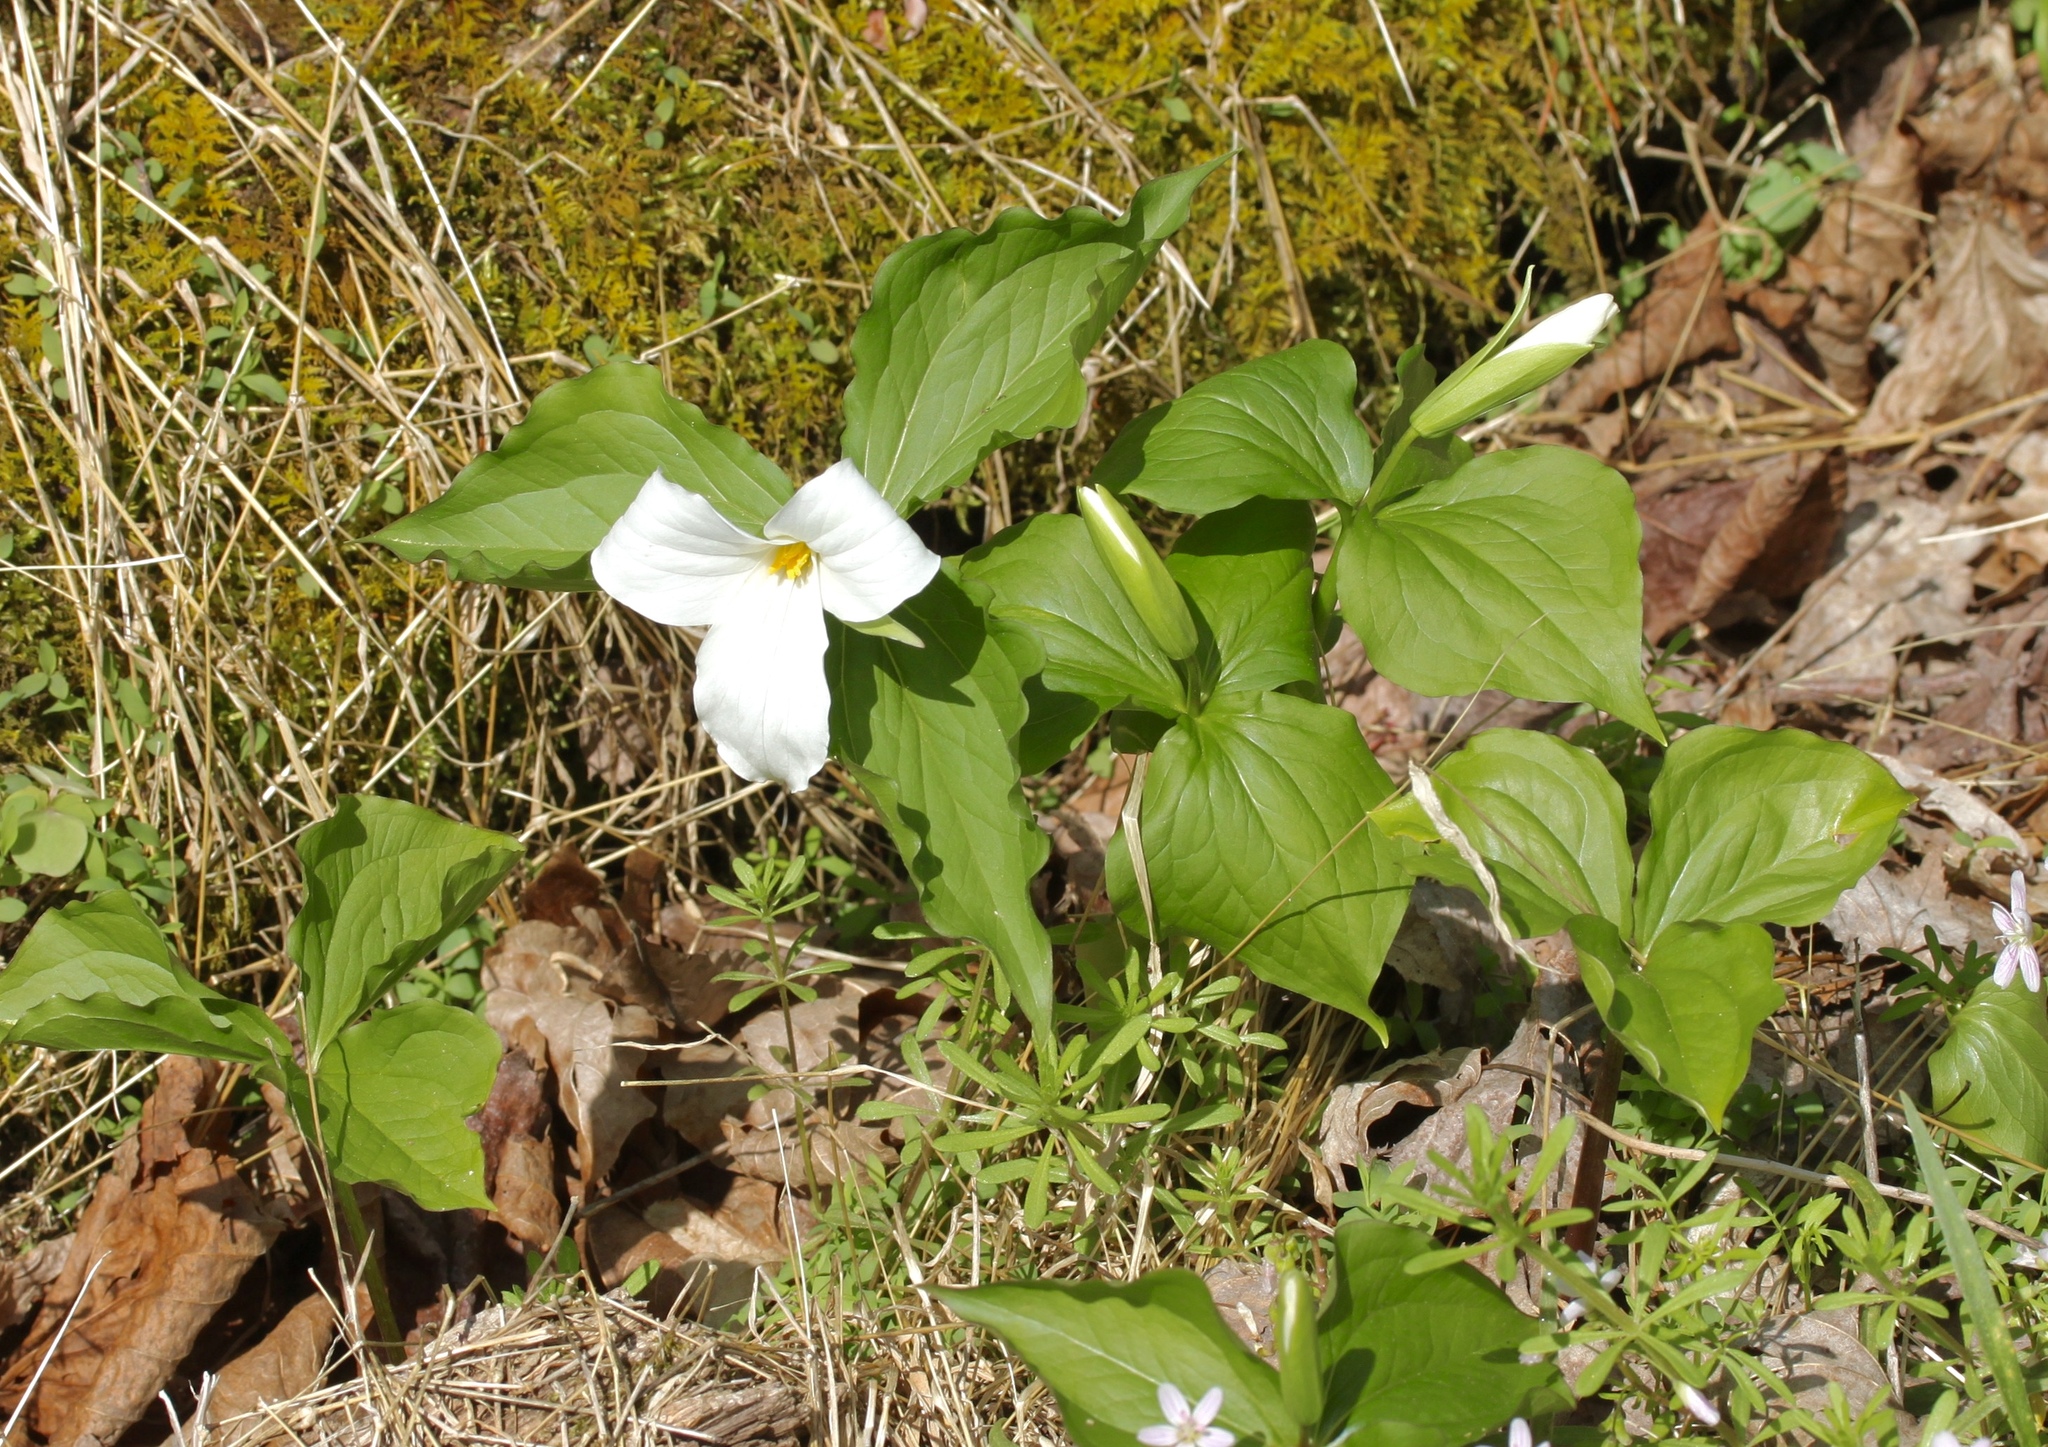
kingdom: Plantae
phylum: Tracheophyta
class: Liliopsida
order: Liliales
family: Melanthiaceae
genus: Trillium
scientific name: Trillium grandiflorum
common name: Great white trillium
